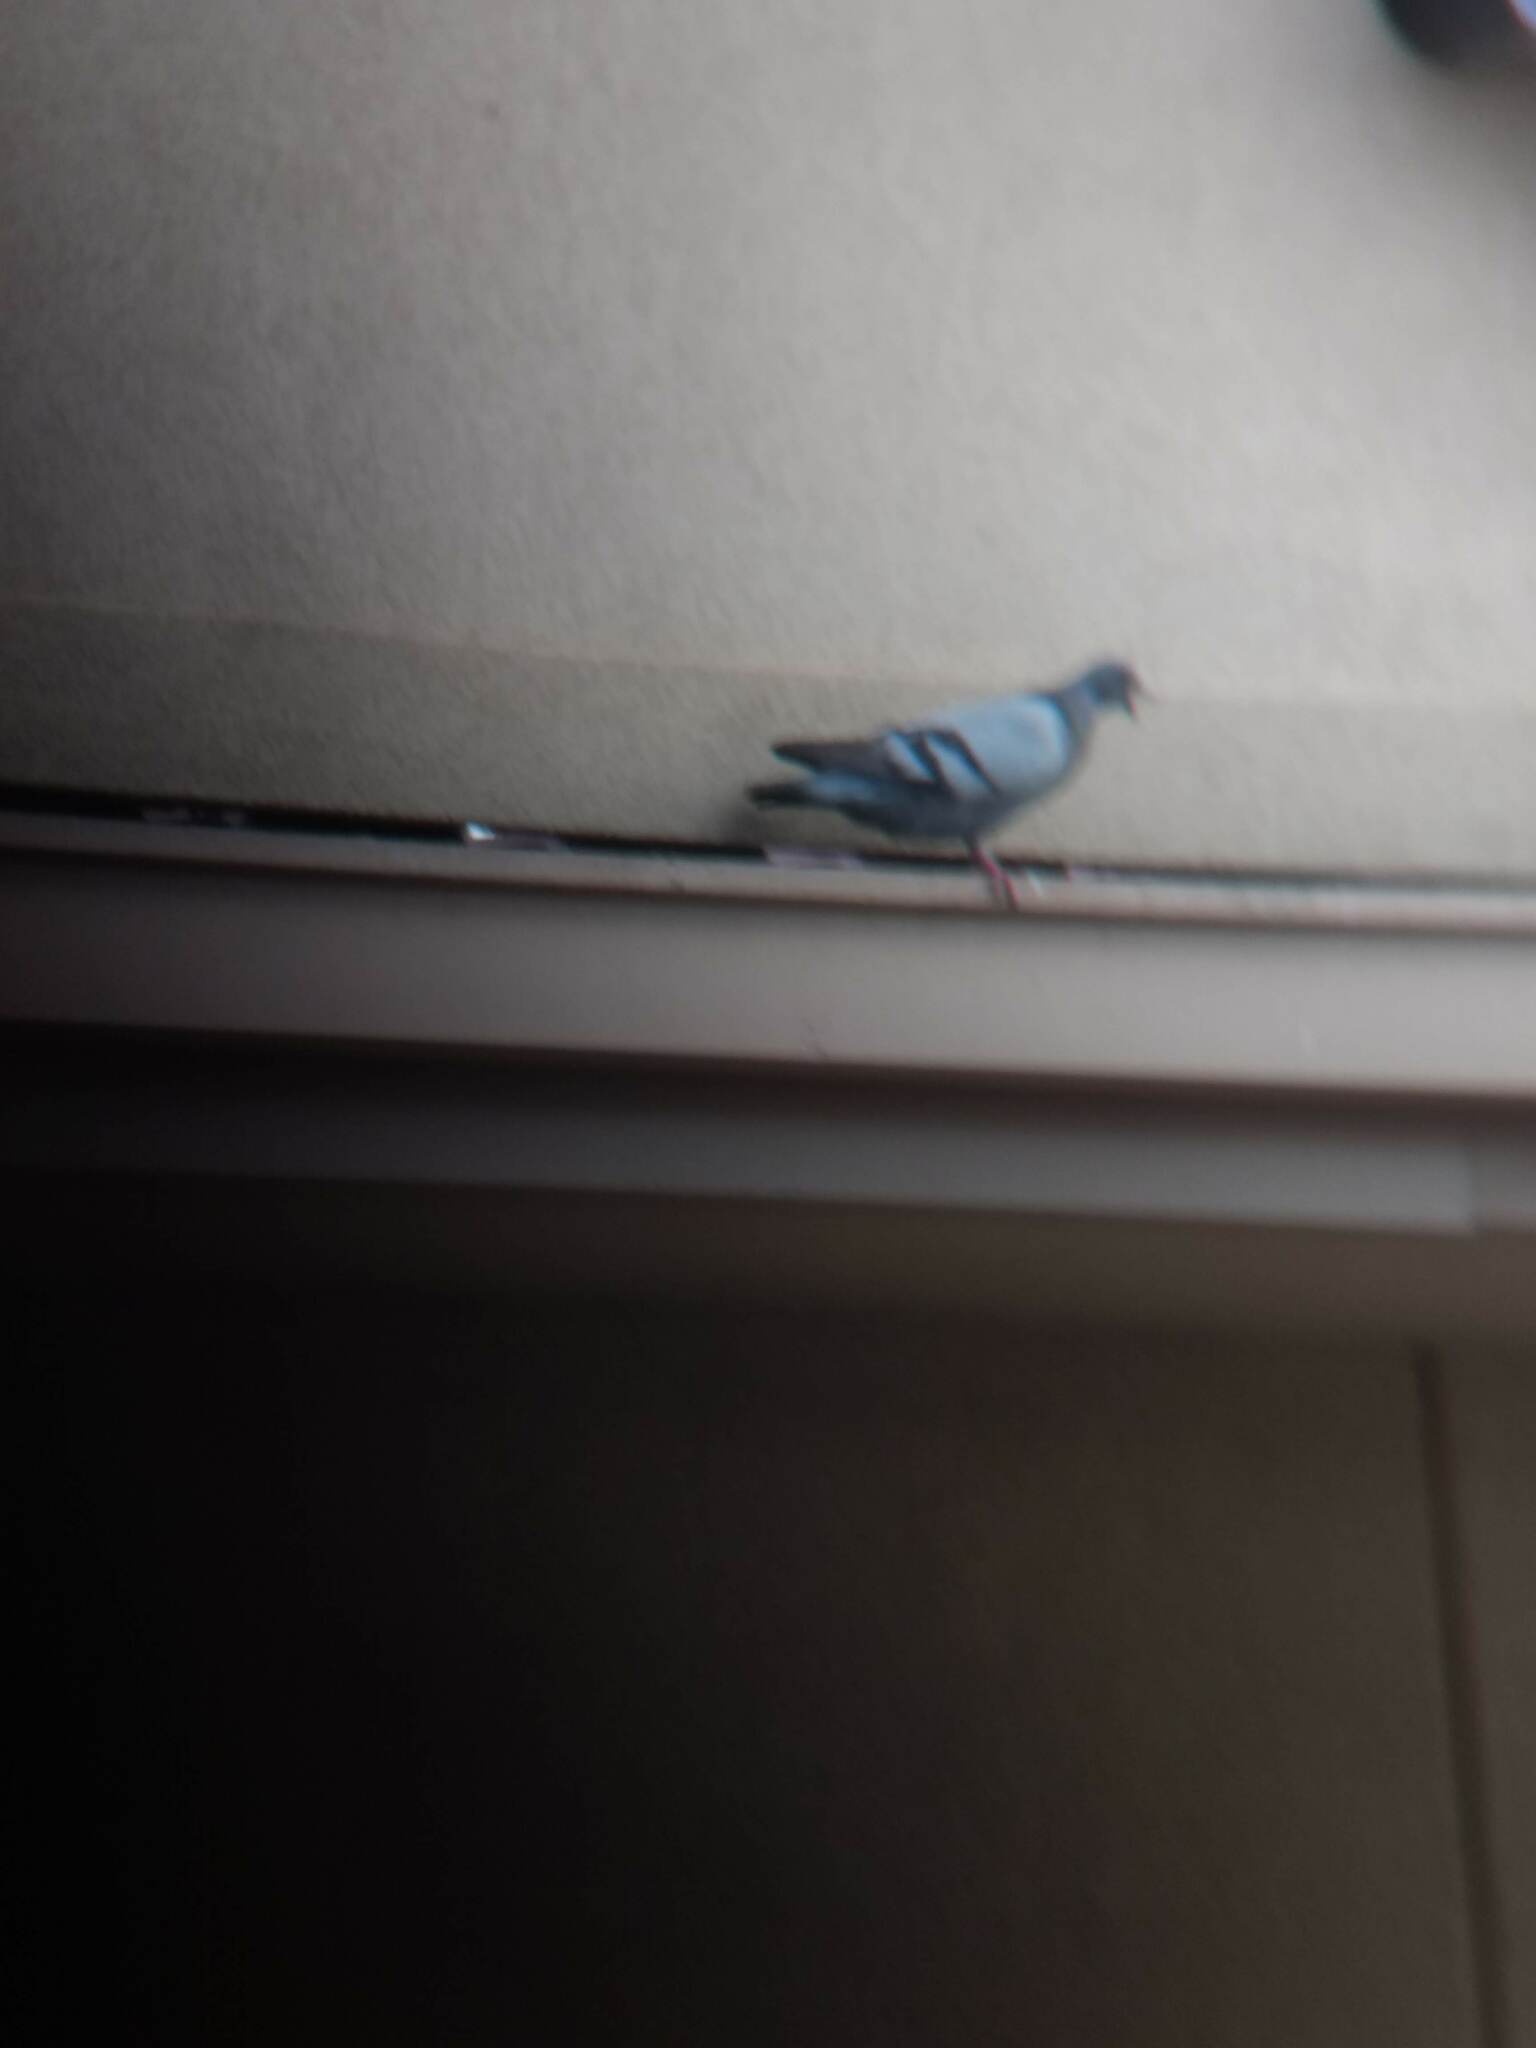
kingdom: Animalia
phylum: Chordata
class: Aves
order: Columbiformes
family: Columbidae
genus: Columba
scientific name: Columba livia
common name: Rock pigeon
